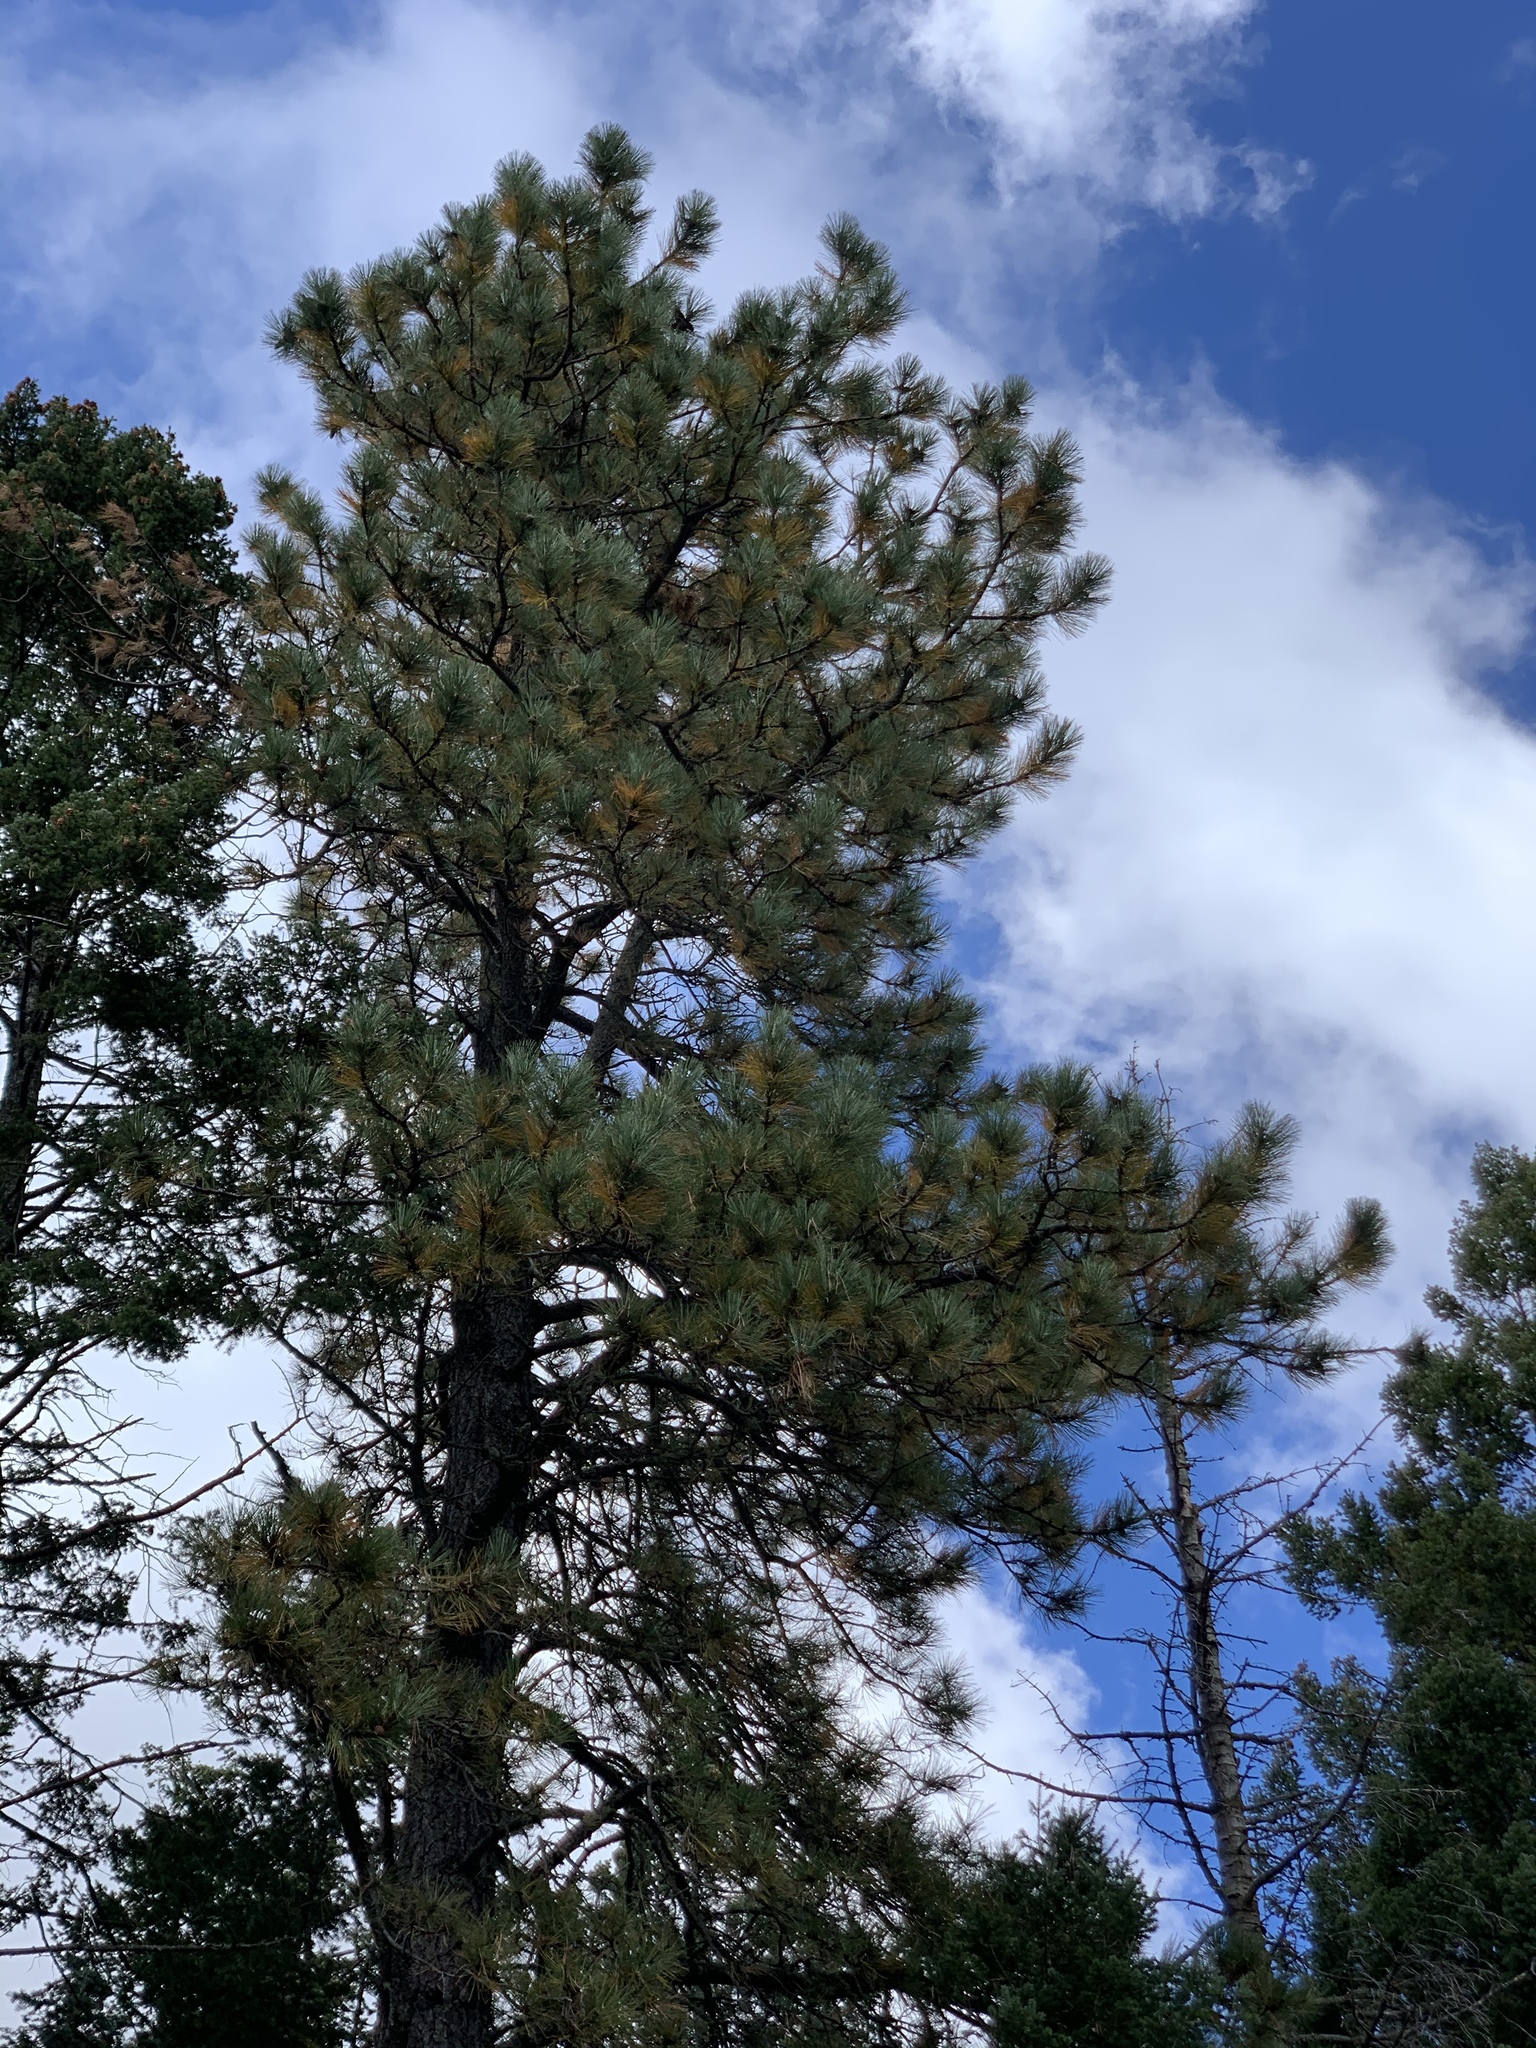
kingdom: Plantae
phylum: Tracheophyta
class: Pinopsida
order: Pinales
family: Pinaceae
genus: Pinus
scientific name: Pinus ponderosa
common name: Western yellow-pine
